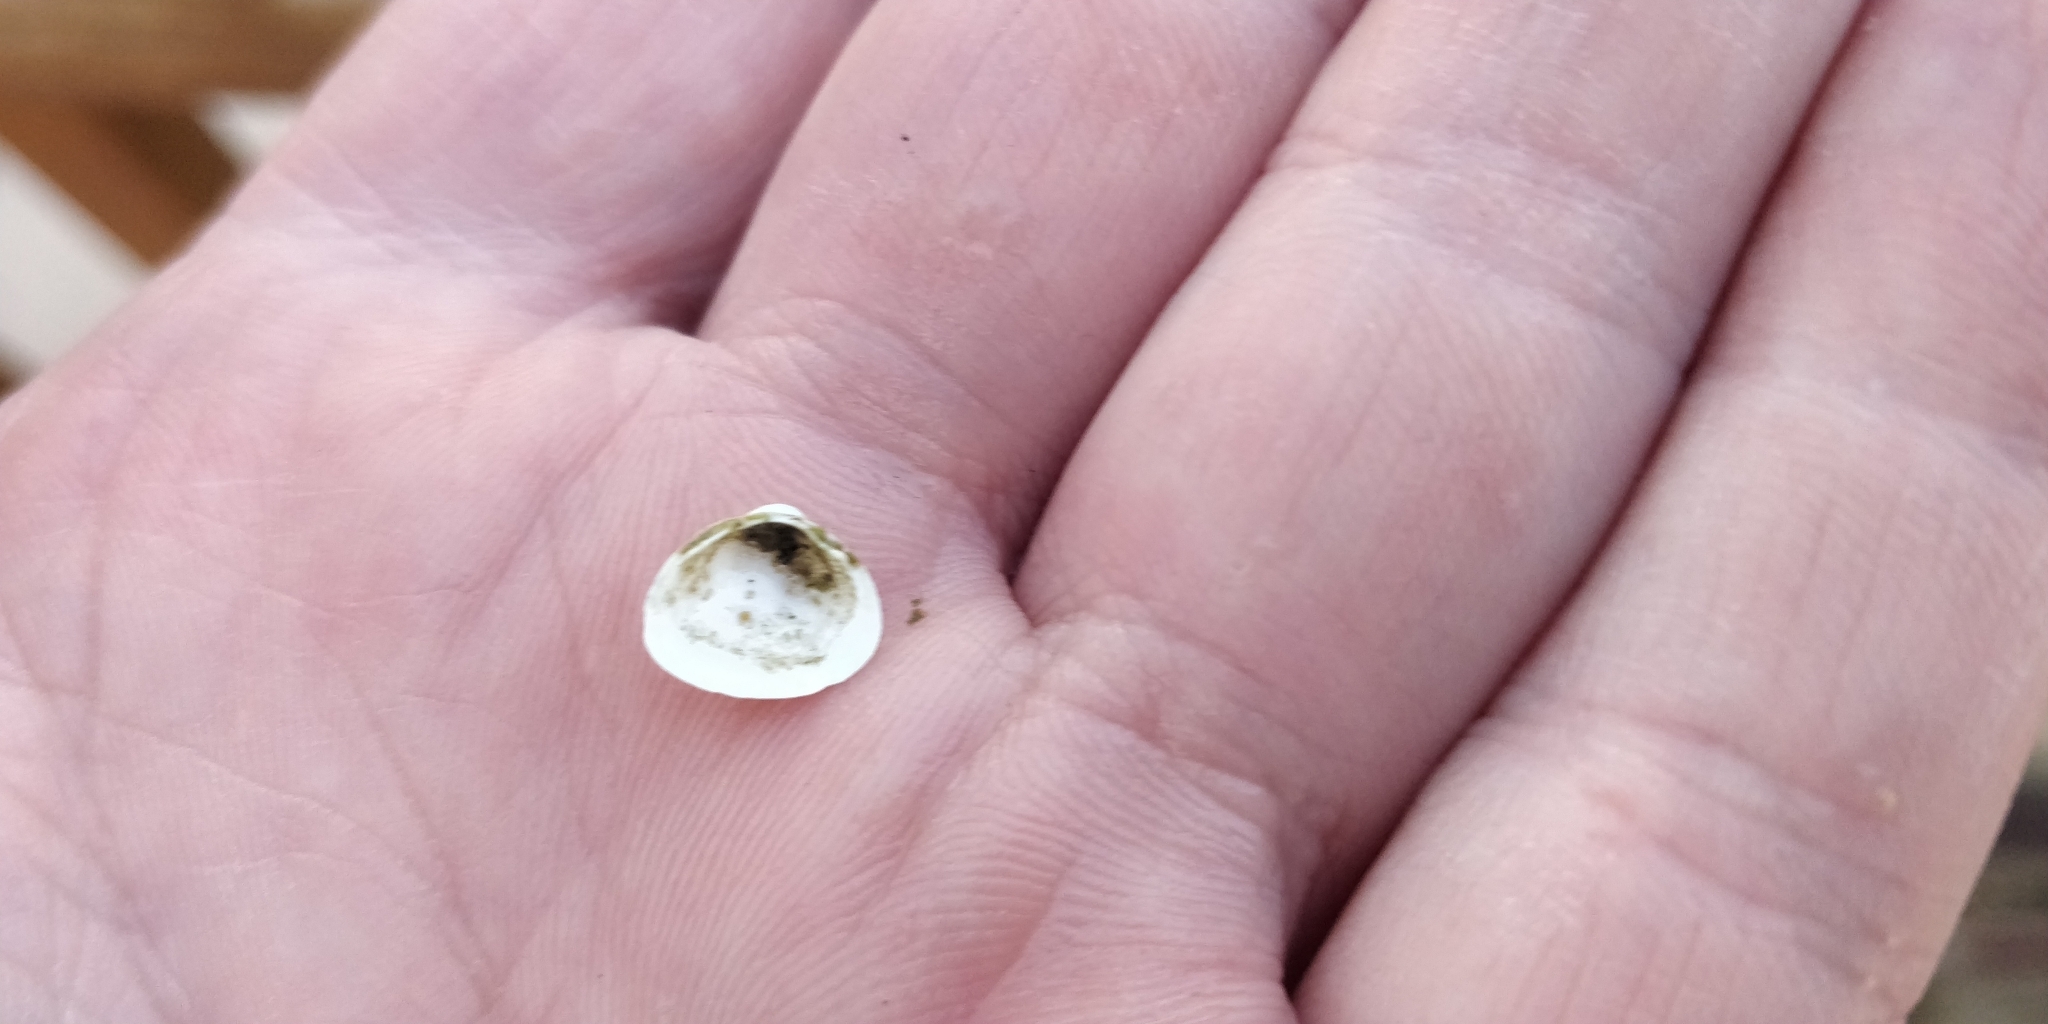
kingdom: Animalia
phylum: Mollusca
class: Bivalvia
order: Sphaeriida
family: Sphaeriidae
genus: Sphaerium
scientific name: Sphaerium striatinum
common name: Striated fingernailclam
